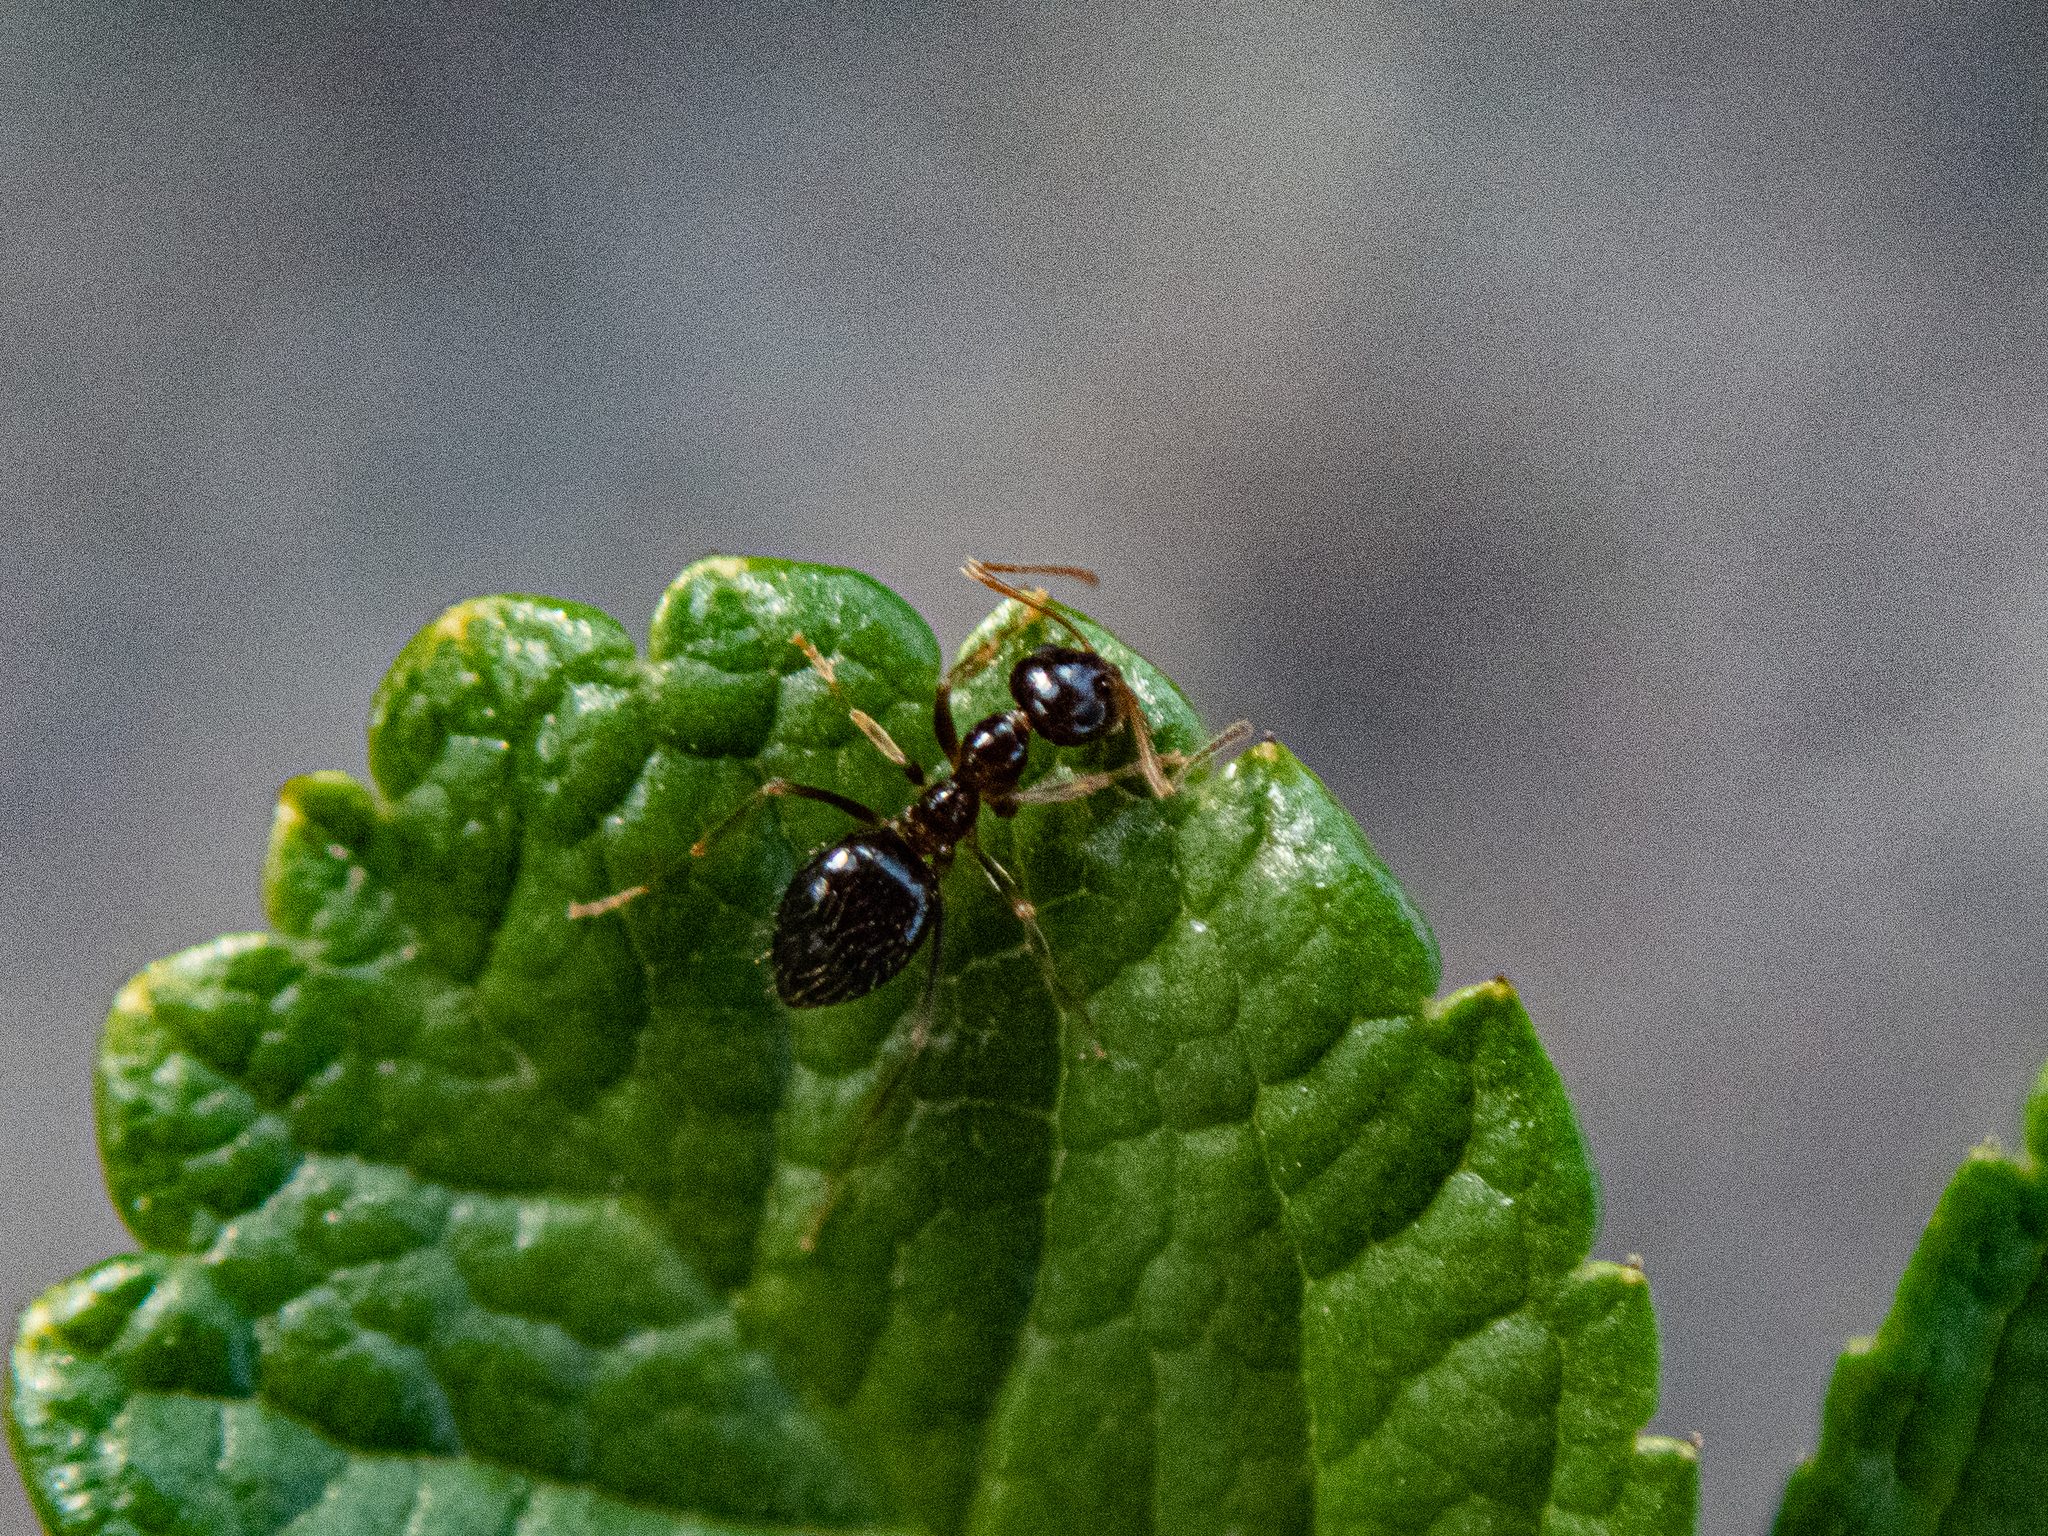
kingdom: Animalia
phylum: Arthropoda
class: Insecta
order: Hymenoptera
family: Formicidae
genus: Prenolepis
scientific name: Prenolepis imparis
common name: Small honey ant
